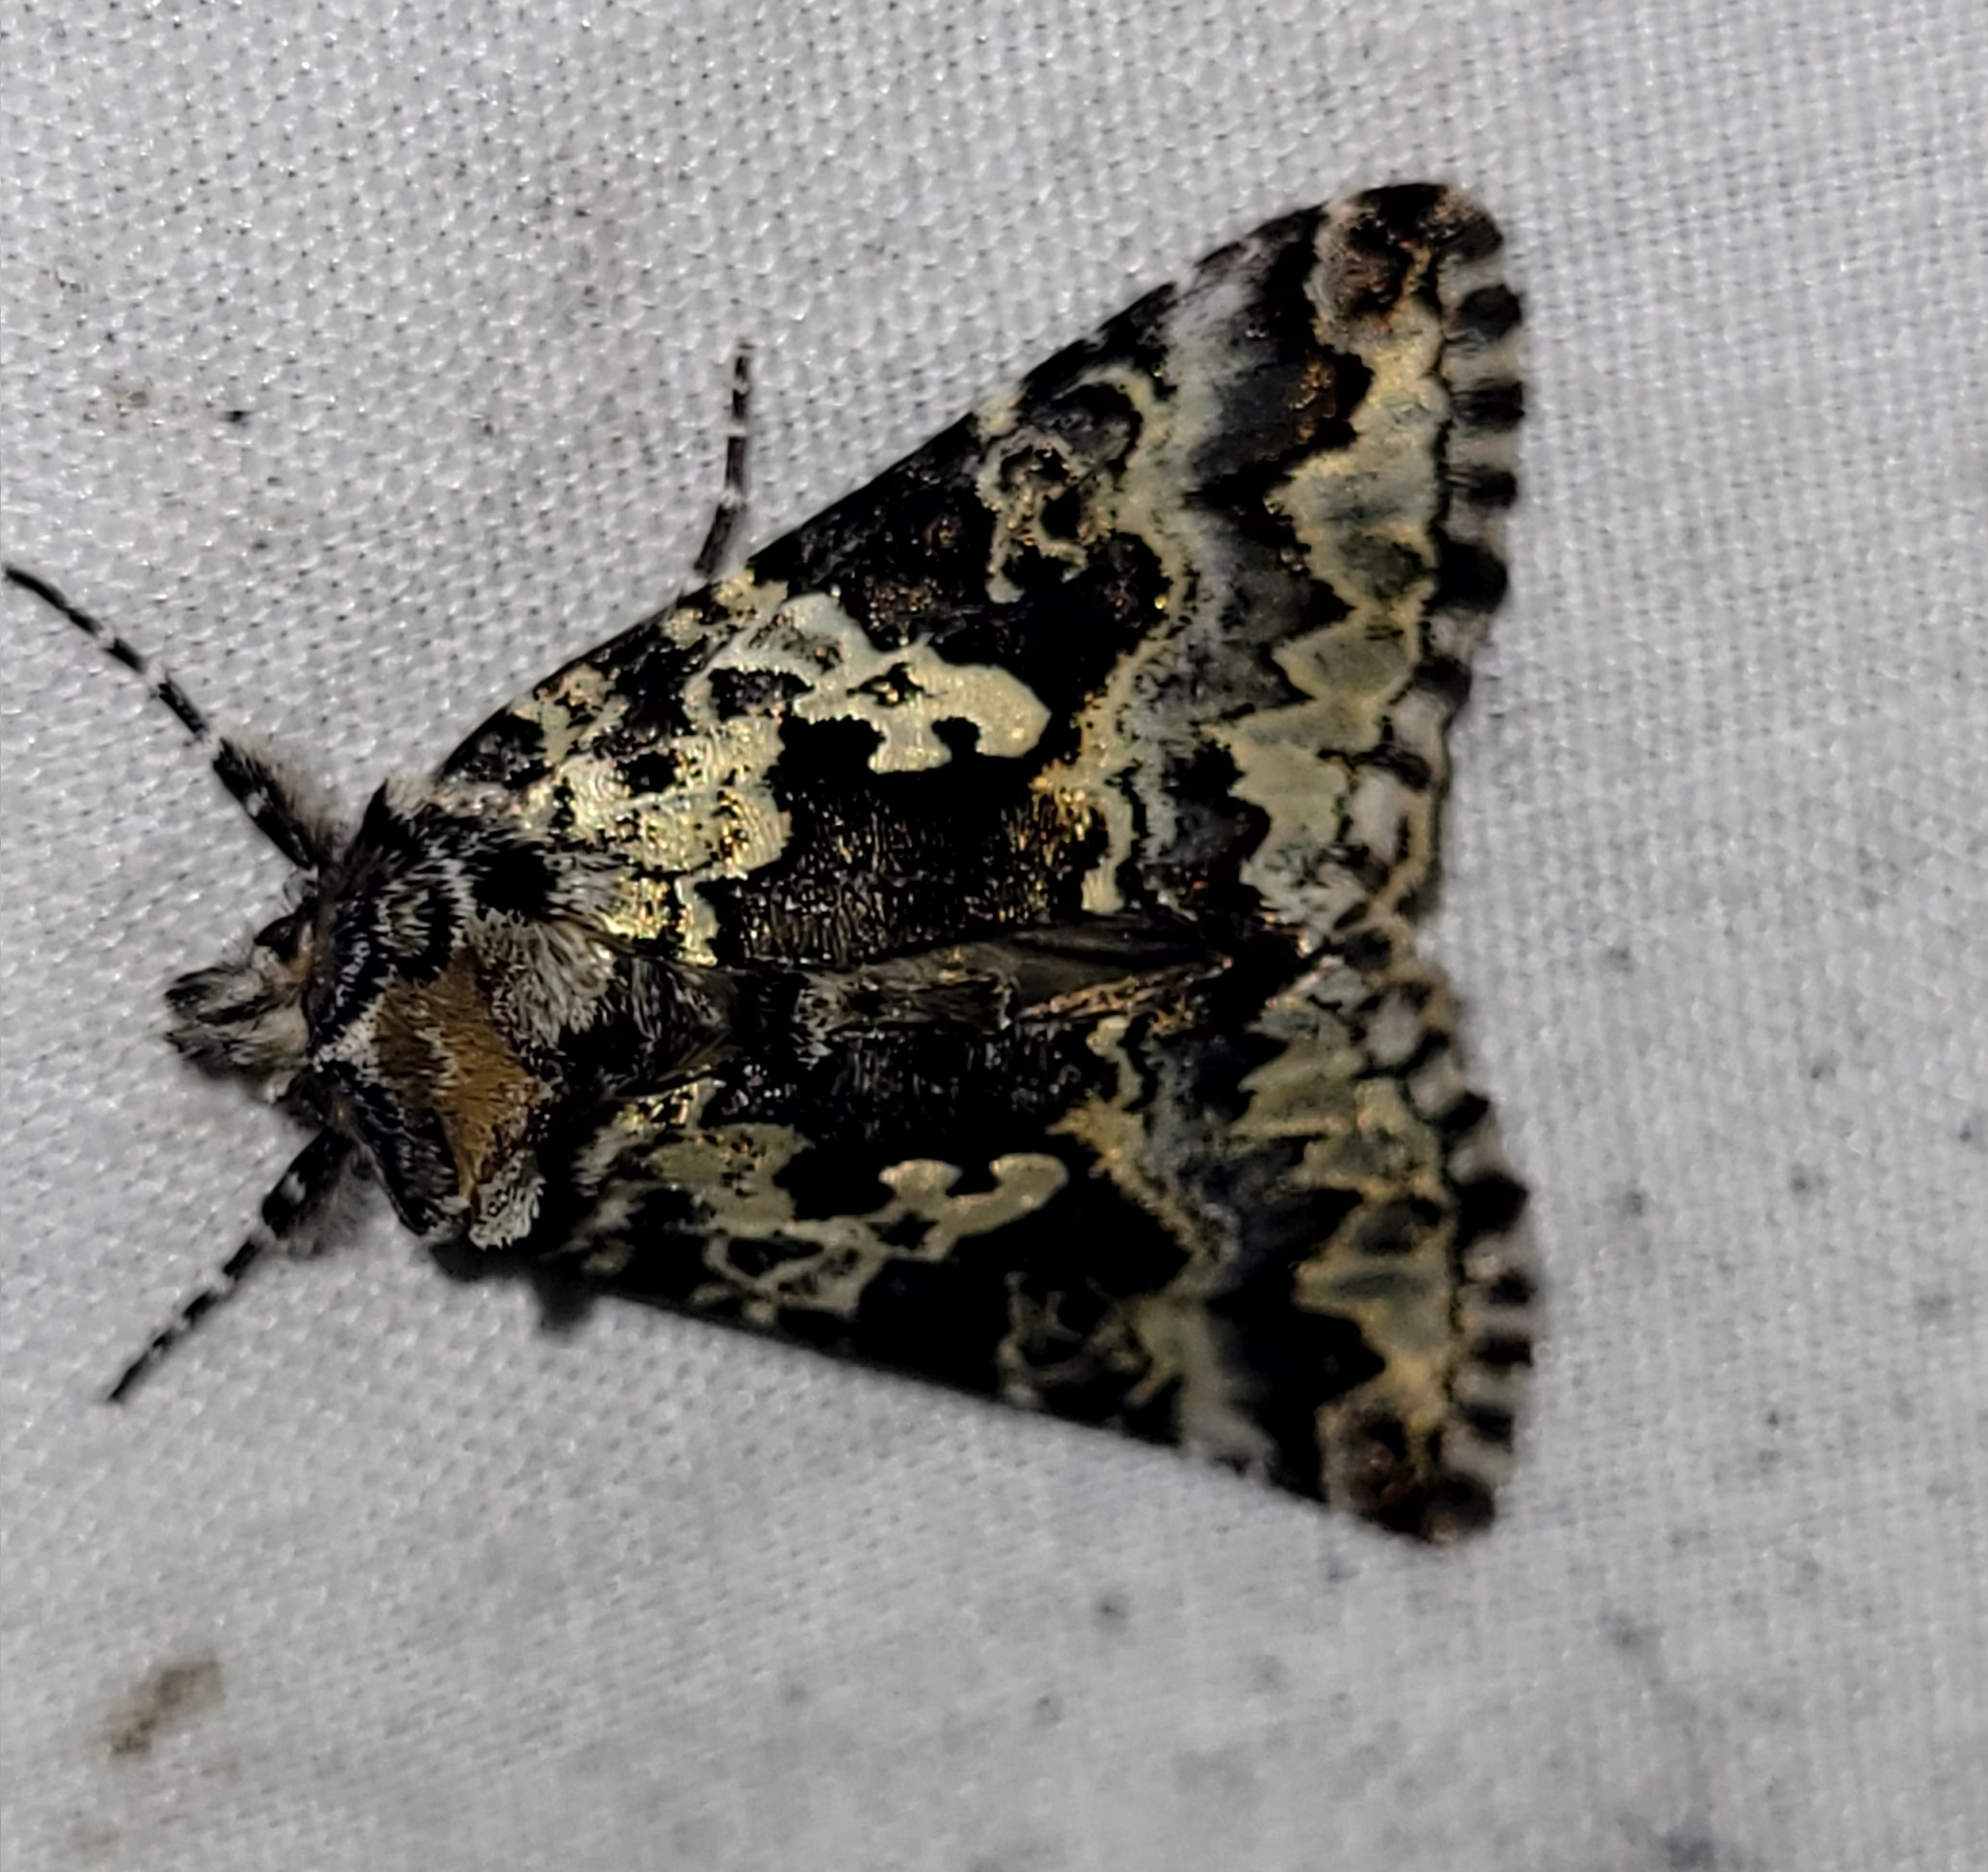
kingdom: Animalia
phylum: Arthropoda
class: Insecta
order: Lepidoptera
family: Noctuidae
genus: Syngrapha
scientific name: Syngrapha rectangula
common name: Angulated cutworm
